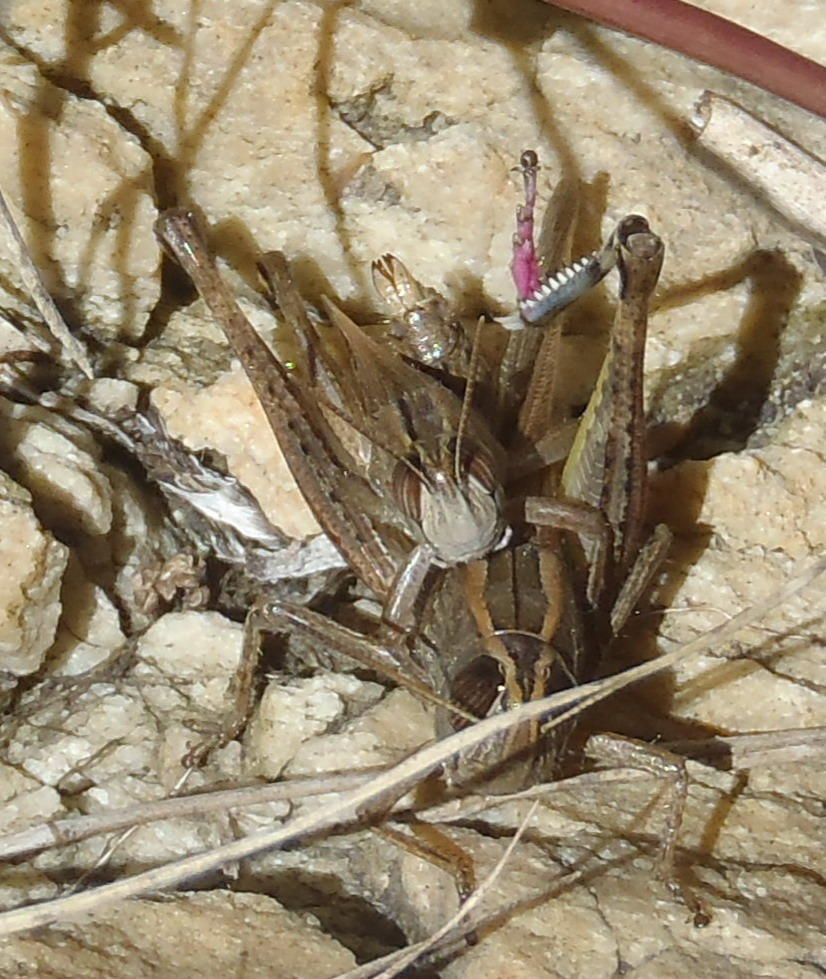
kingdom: Animalia
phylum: Arthropoda
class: Insecta
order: Orthoptera
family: Acrididae
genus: Eyprepocnemis
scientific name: Eyprepocnemis calceata
